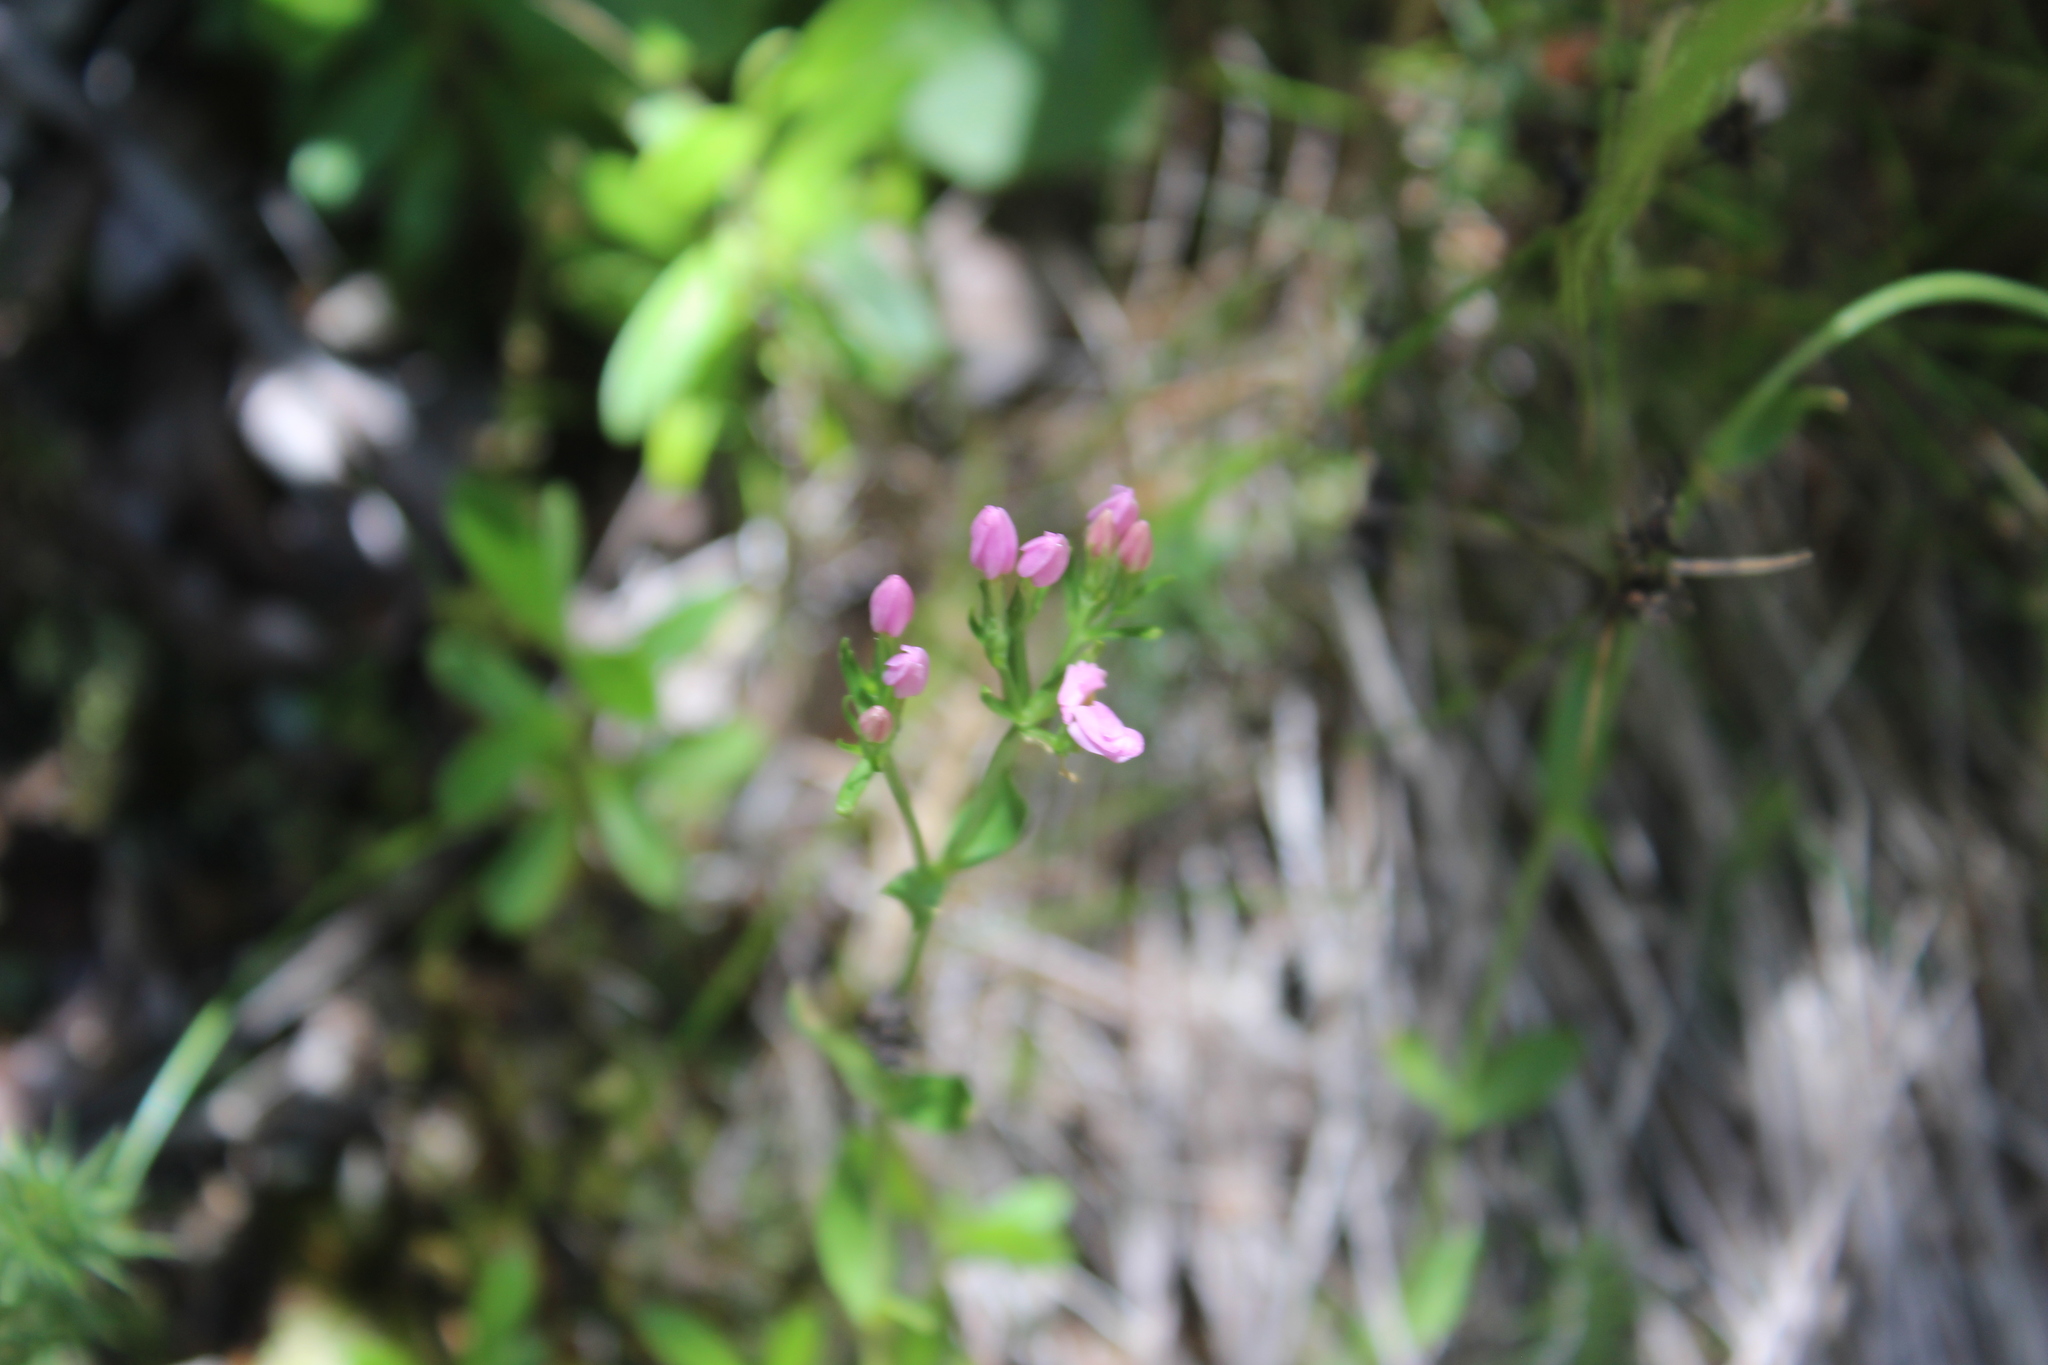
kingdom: Plantae
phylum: Tracheophyta
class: Magnoliopsida
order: Gentianales
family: Gentianaceae
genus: Centaurium
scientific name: Centaurium erythraea
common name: Common centaury
